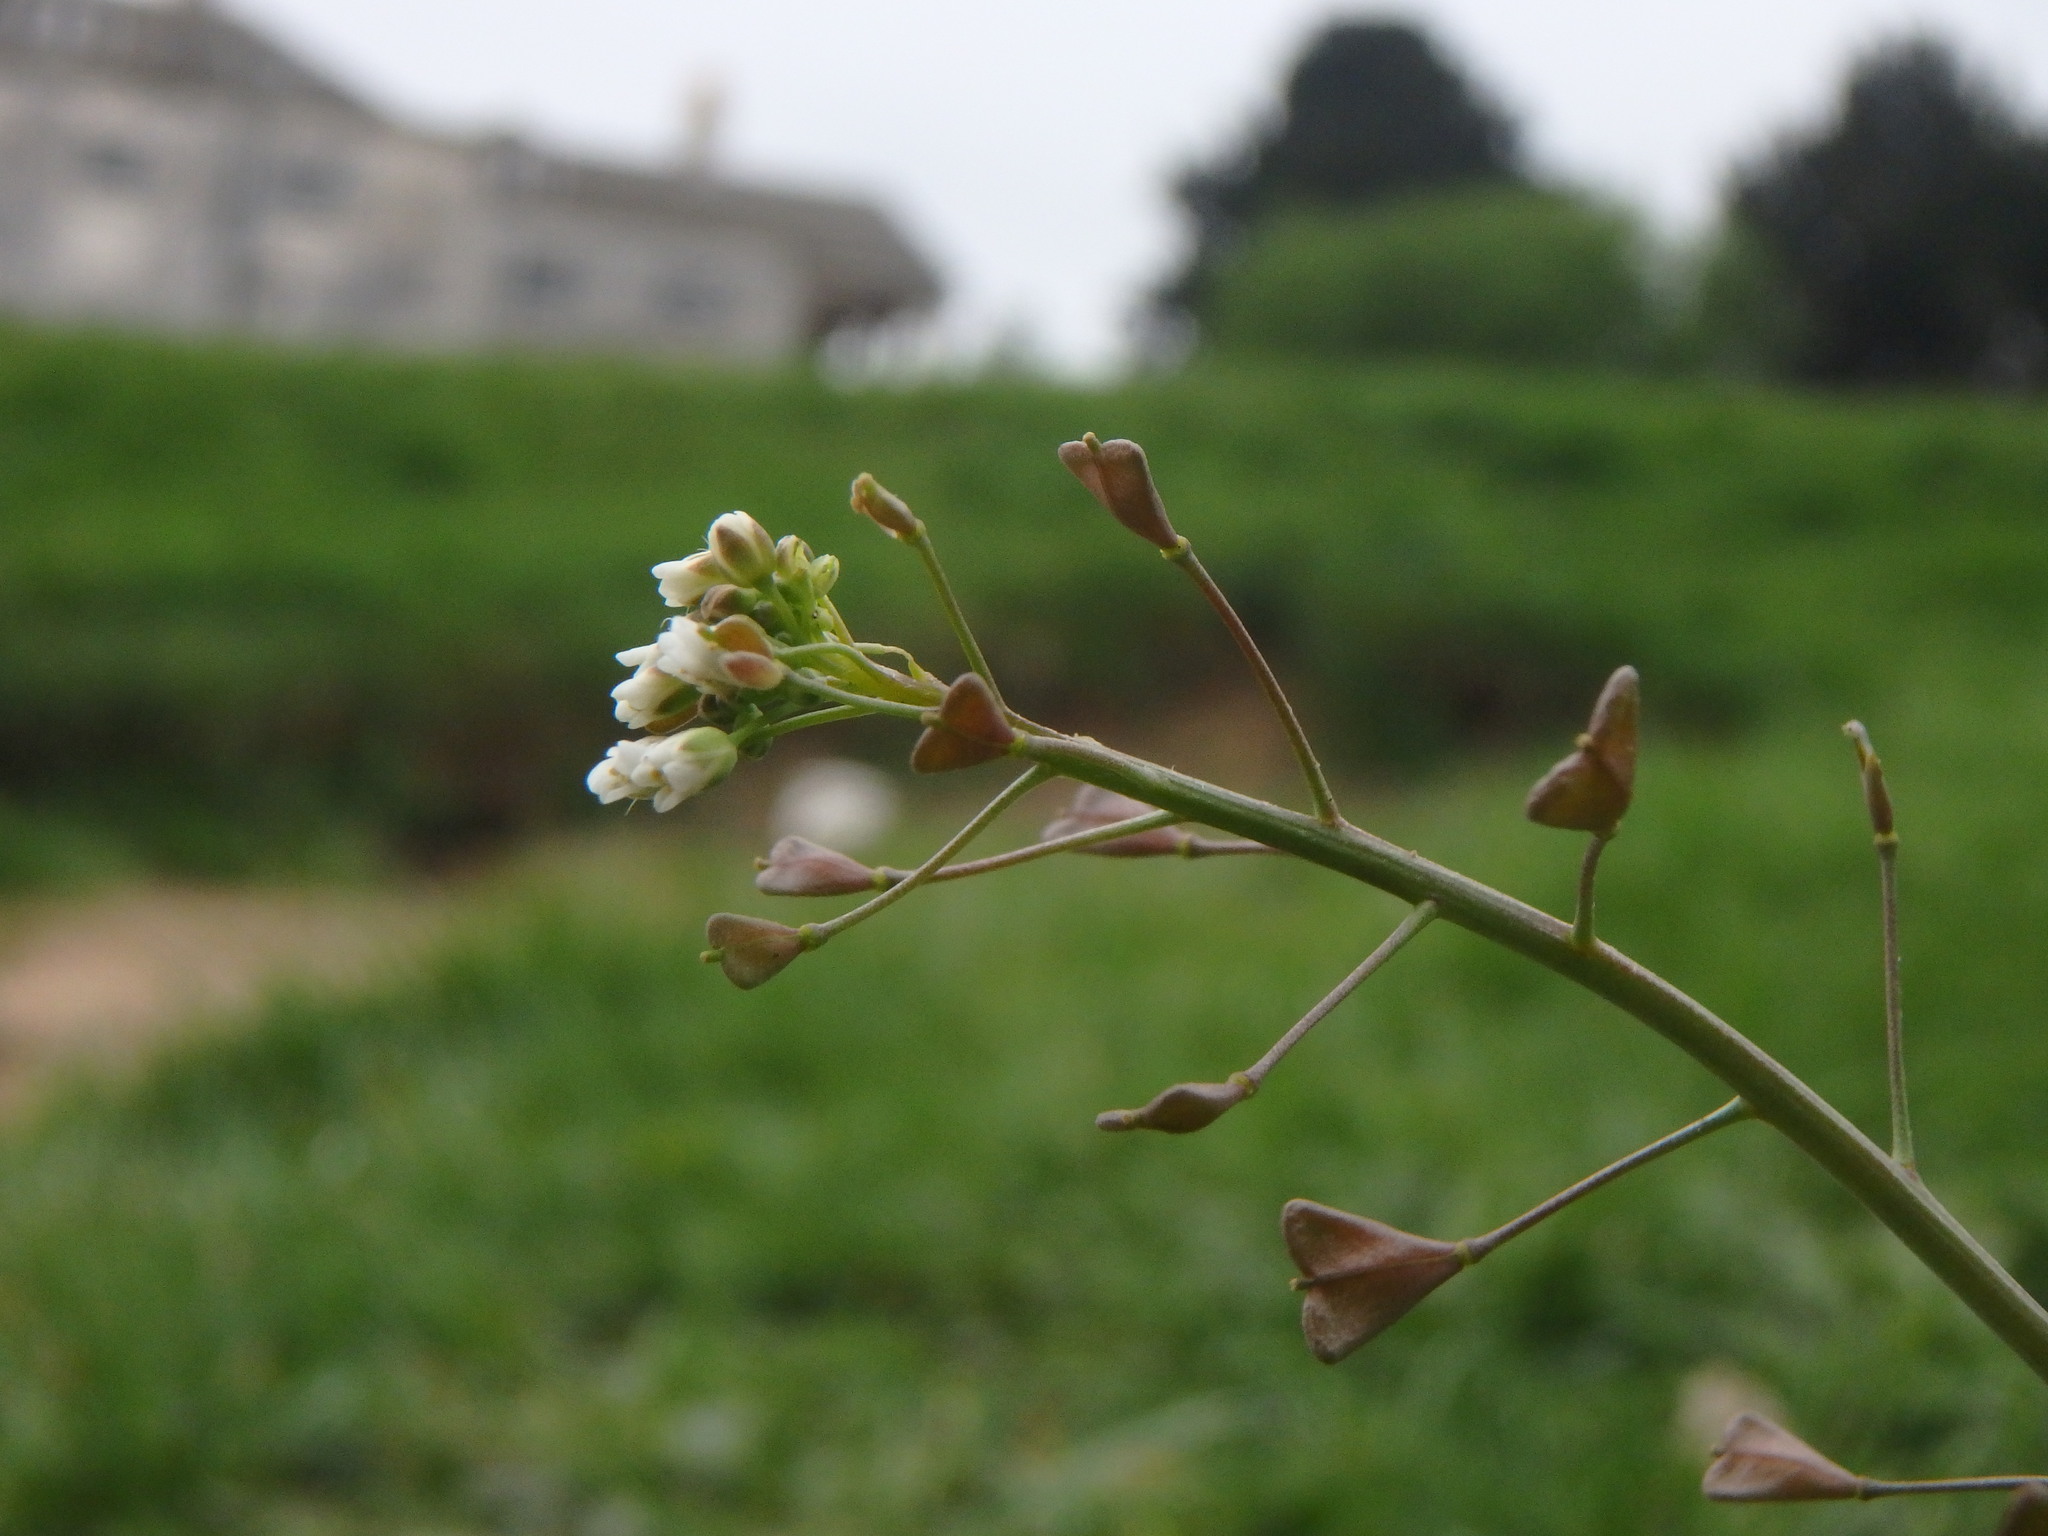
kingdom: Plantae
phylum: Tracheophyta
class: Magnoliopsida
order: Brassicales
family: Brassicaceae
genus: Capsella
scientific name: Capsella bursa-pastoris
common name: Shepherd's purse
